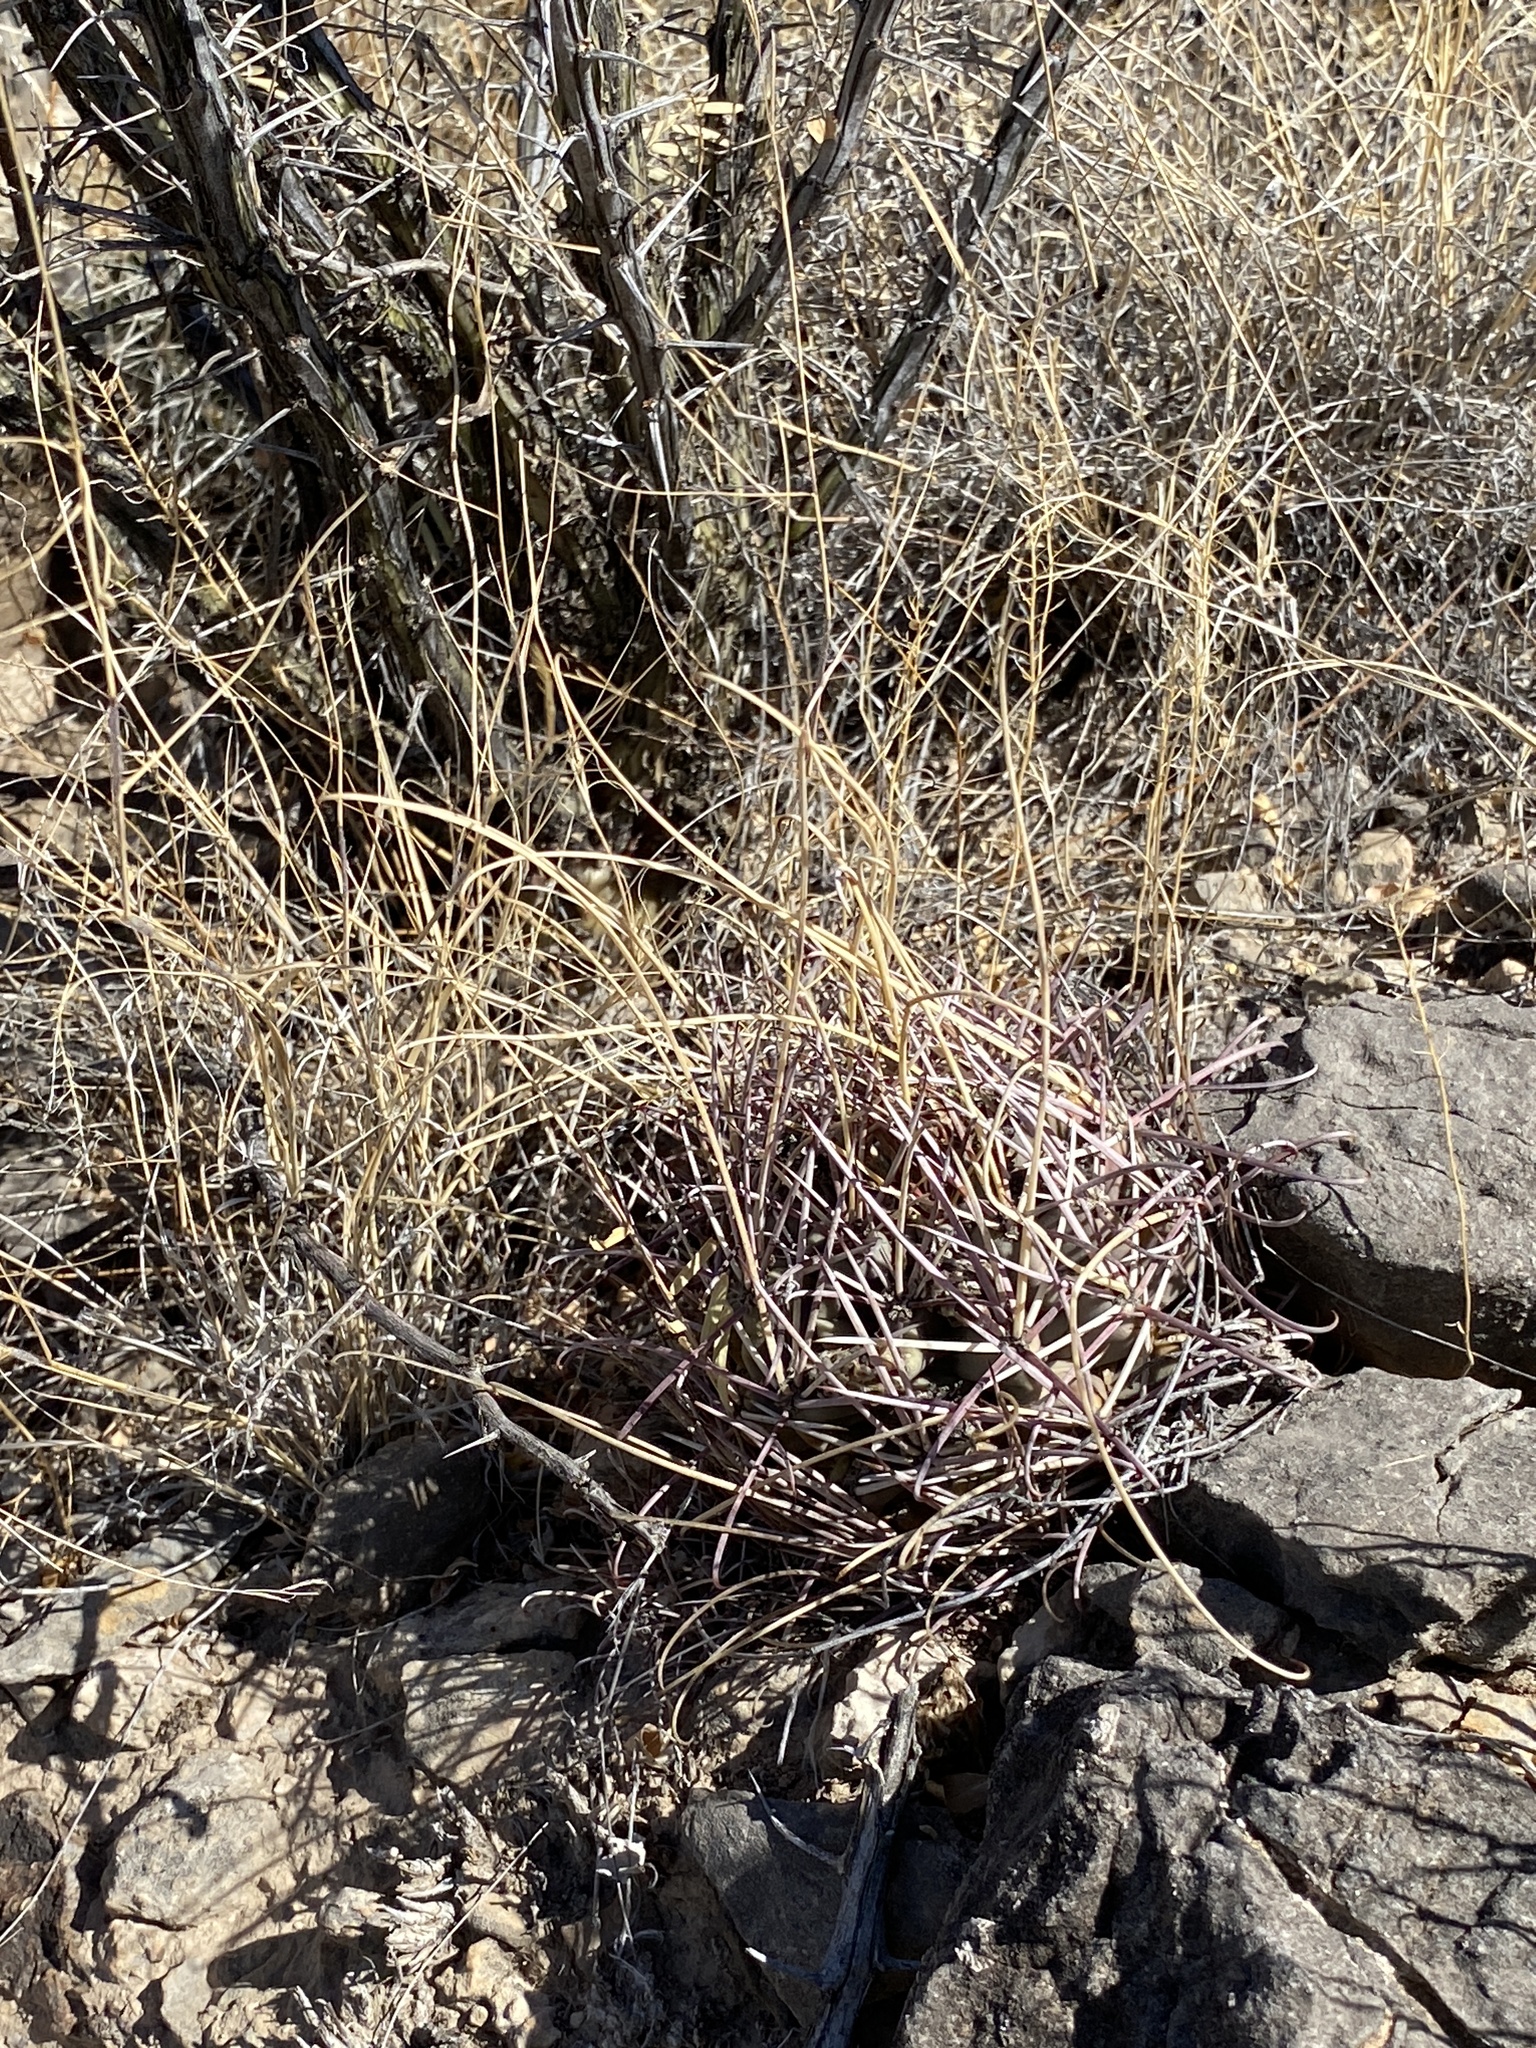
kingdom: Plantae
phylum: Tracheophyta
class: Magnoliopsida
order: Caryophyllales
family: Cactaceae
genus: Ferocactus
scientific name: Ferocactus uncinatus
